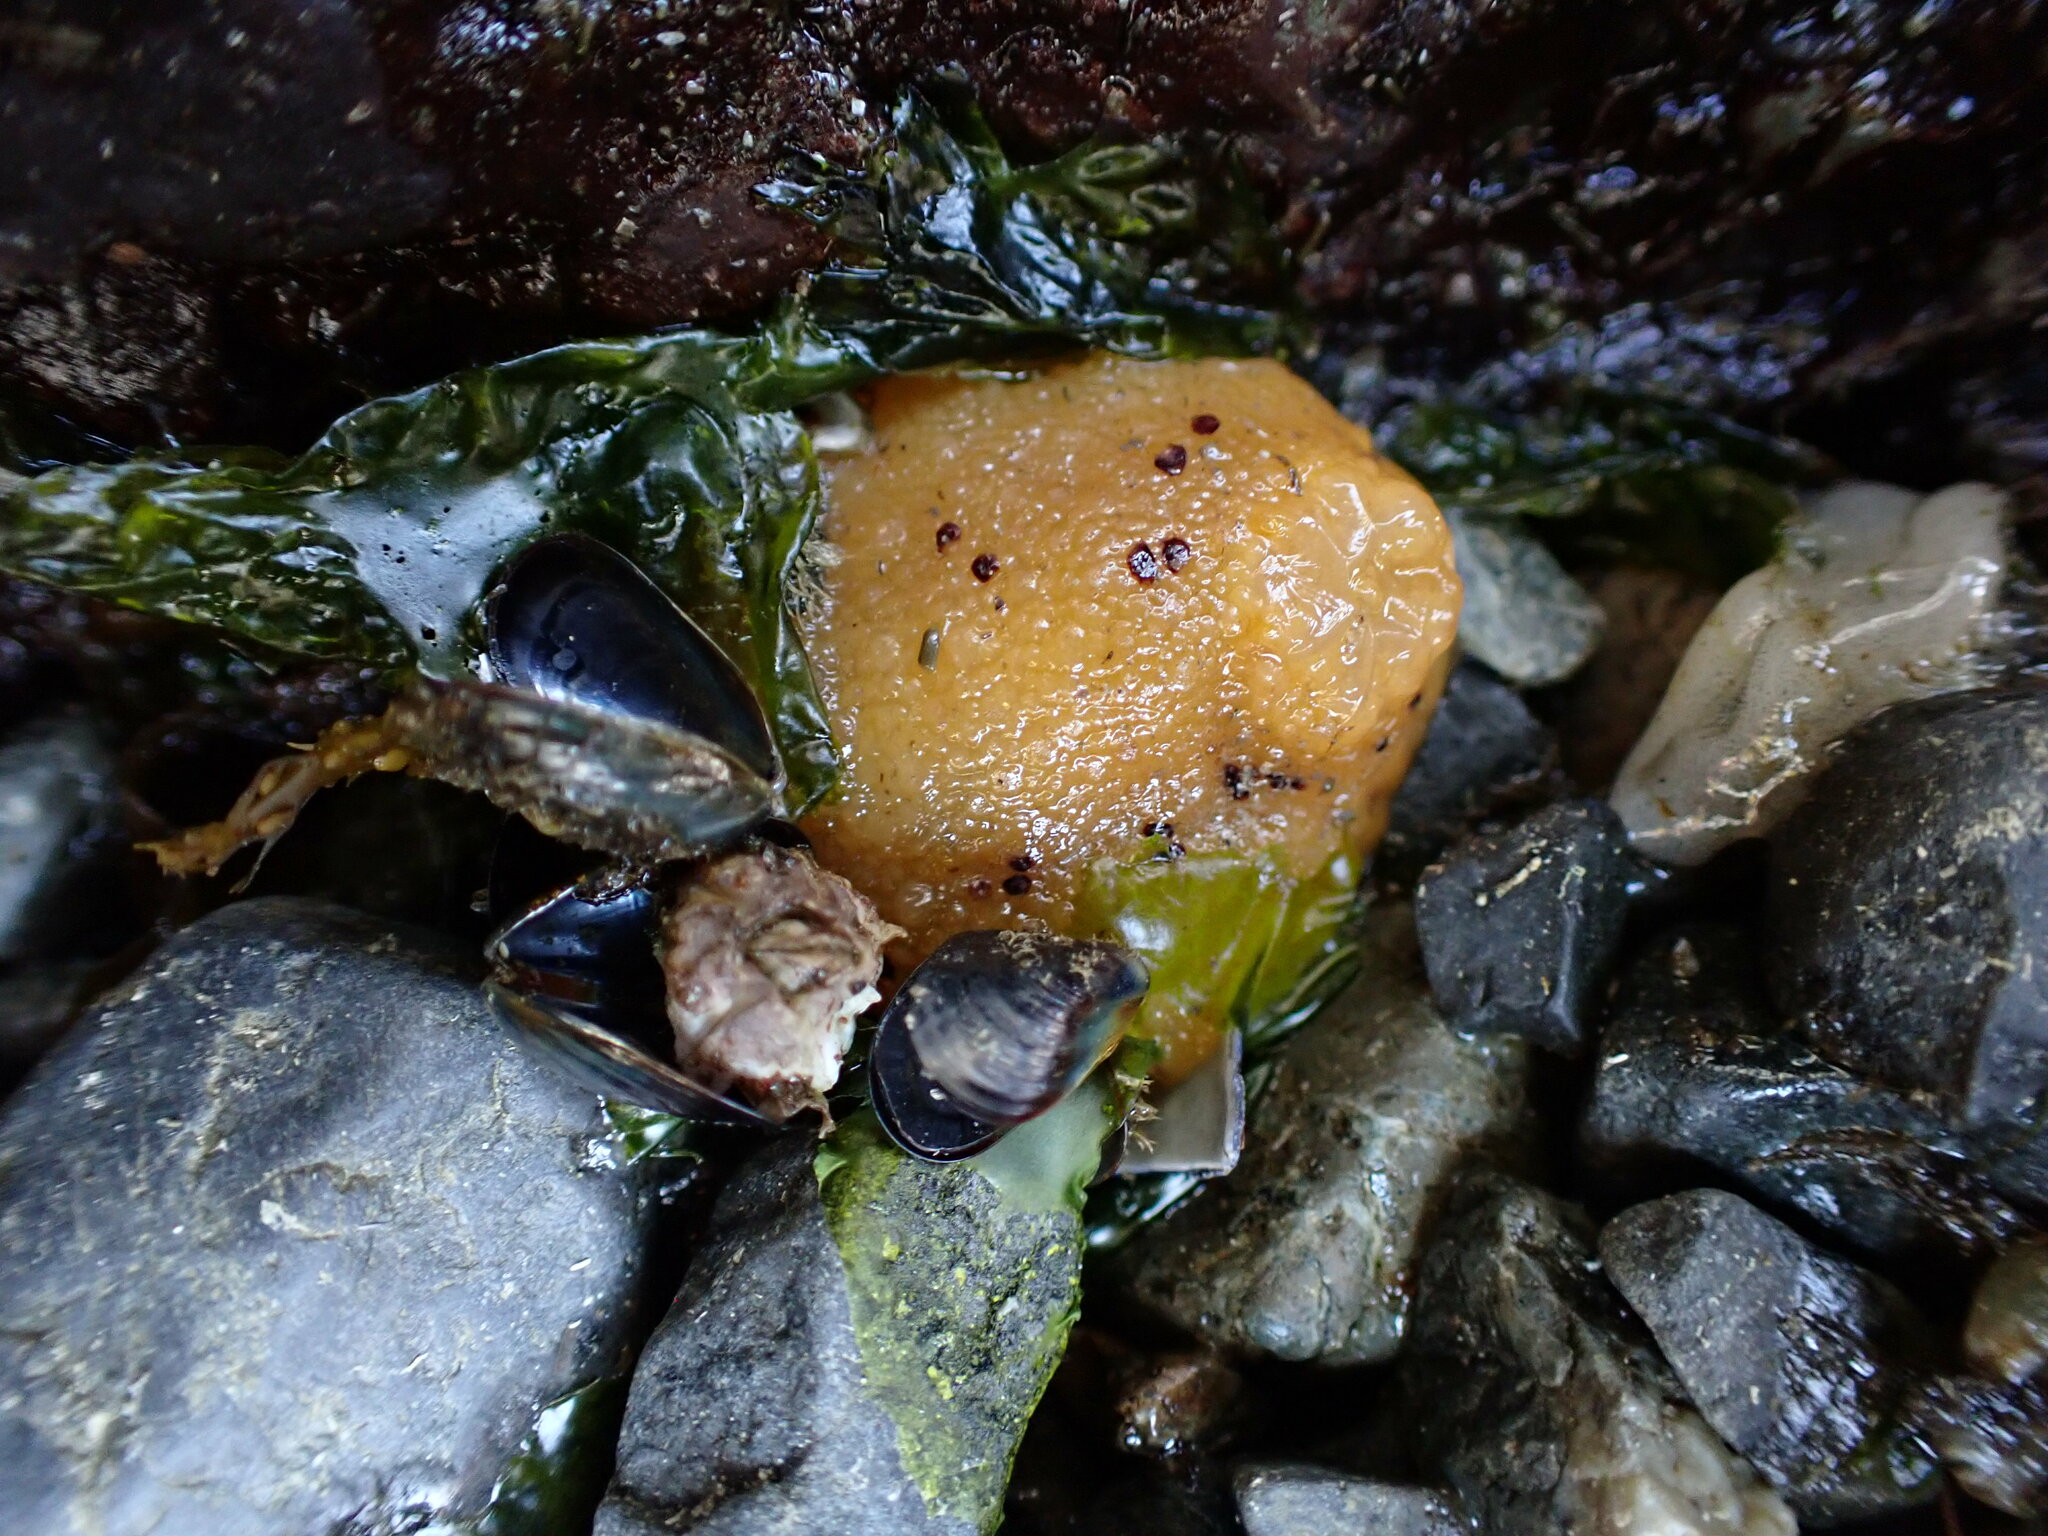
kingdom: Animalia
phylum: Mollusca
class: Gastropoda
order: Nudibranchia
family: Dorididae
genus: Doris
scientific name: Doris montereyensis
